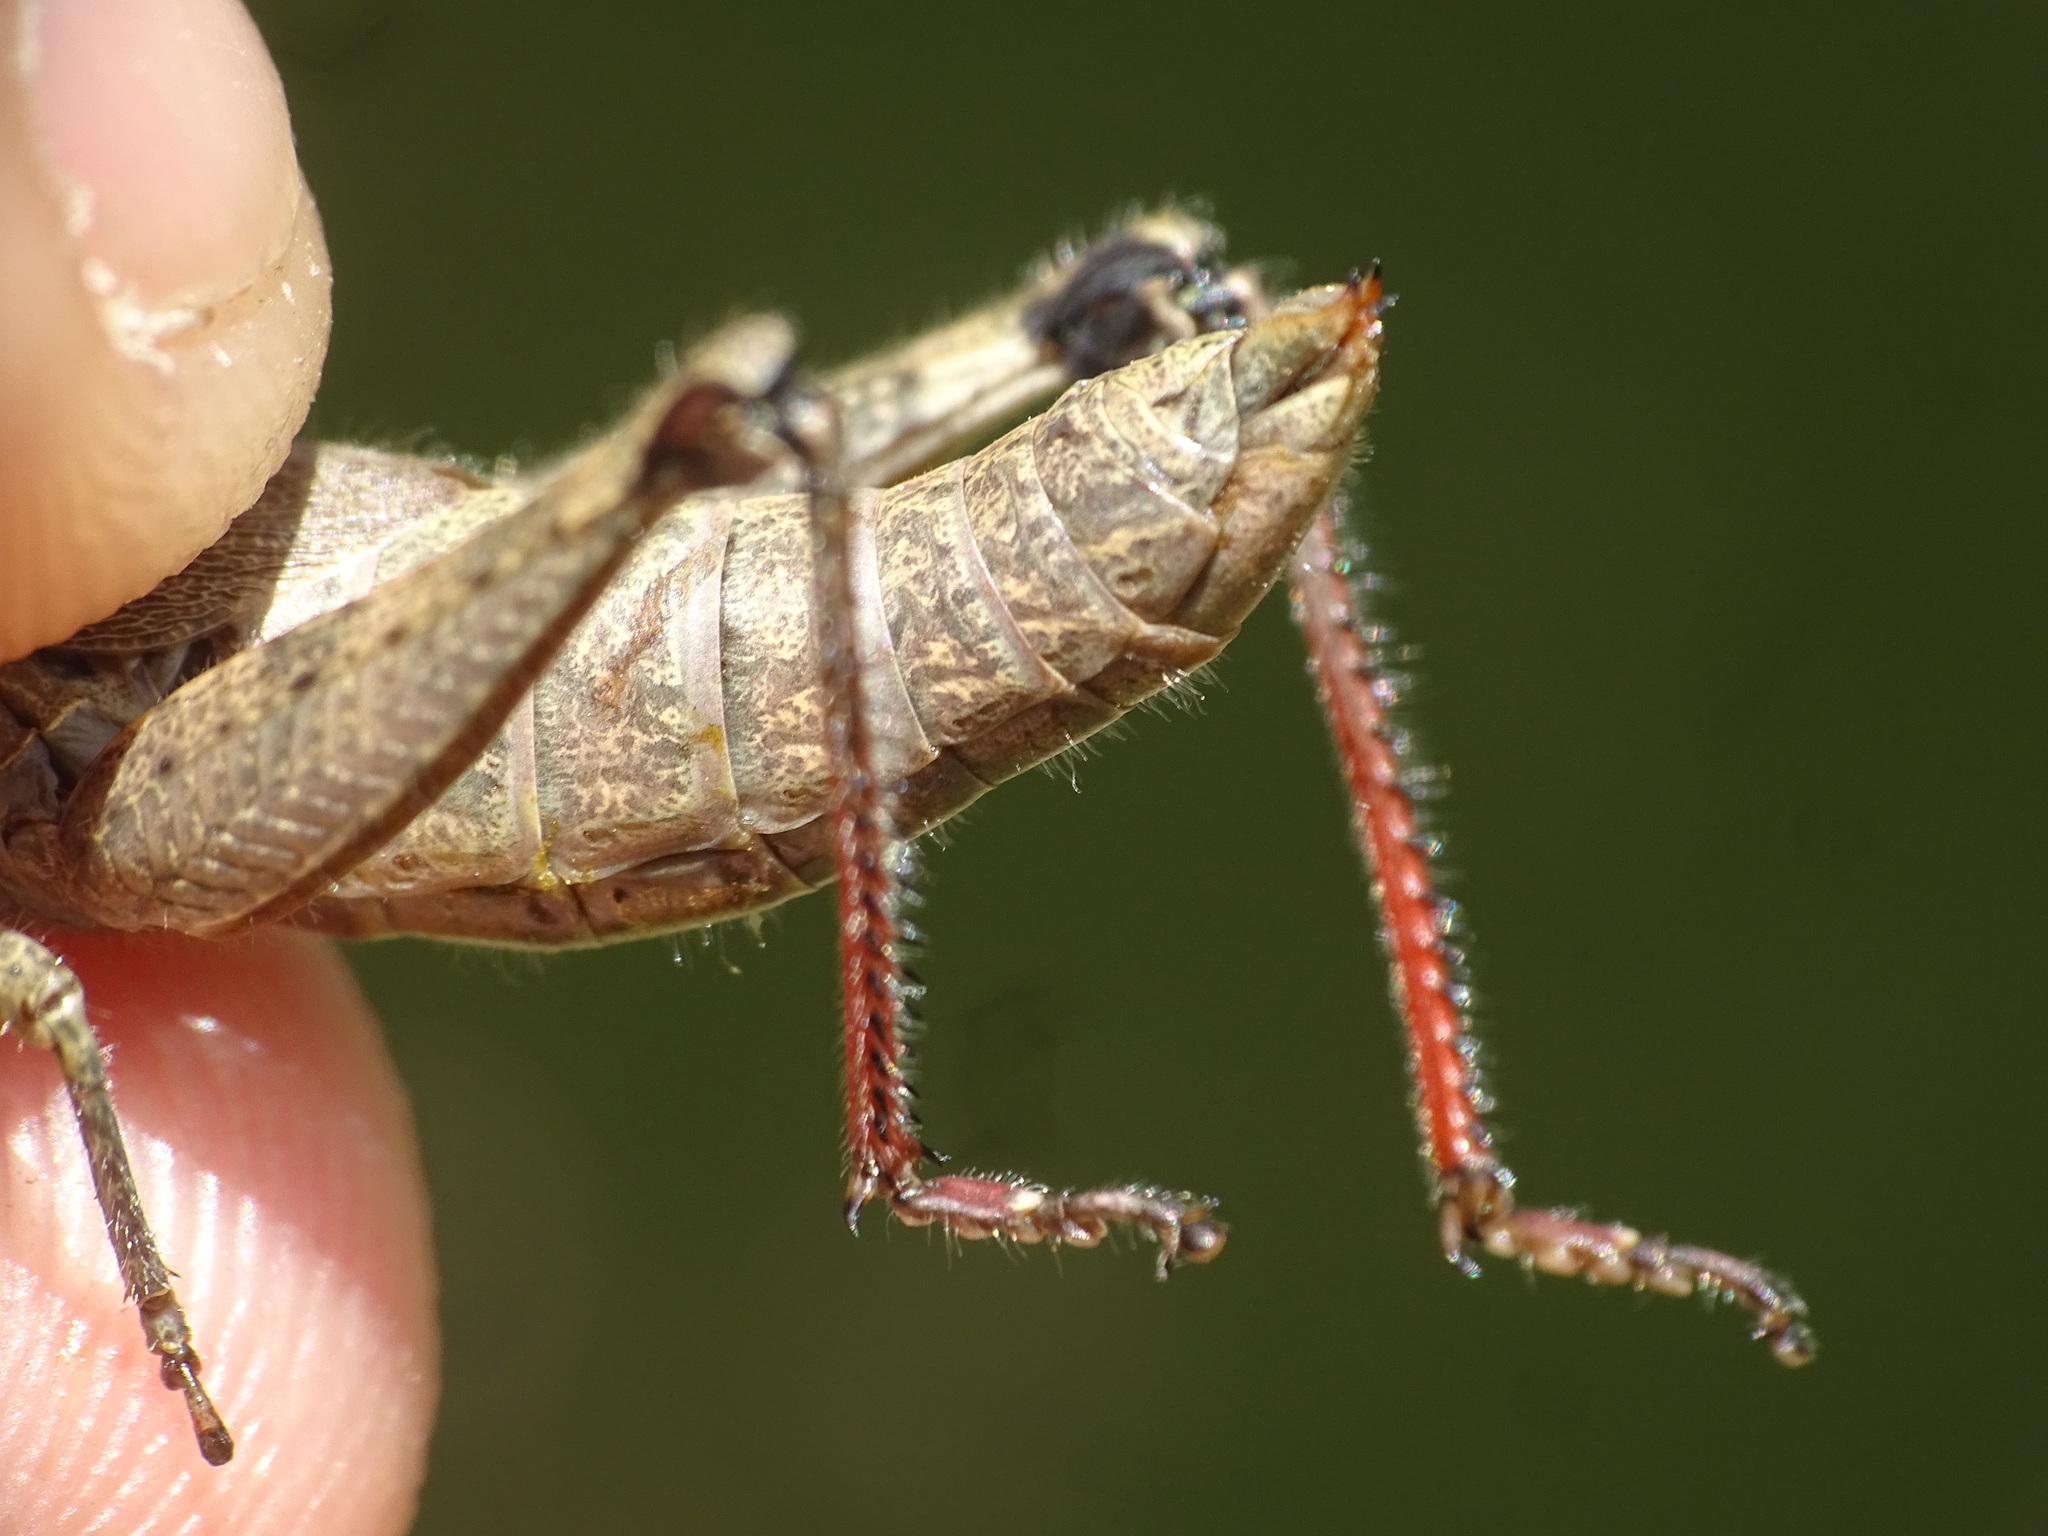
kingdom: Animalia
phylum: Arthropoda
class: Insecta
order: Orthoptera
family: Acrididae
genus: Melanoplus
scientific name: Melanoplus scudderi
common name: Scudder's short-winged locust
